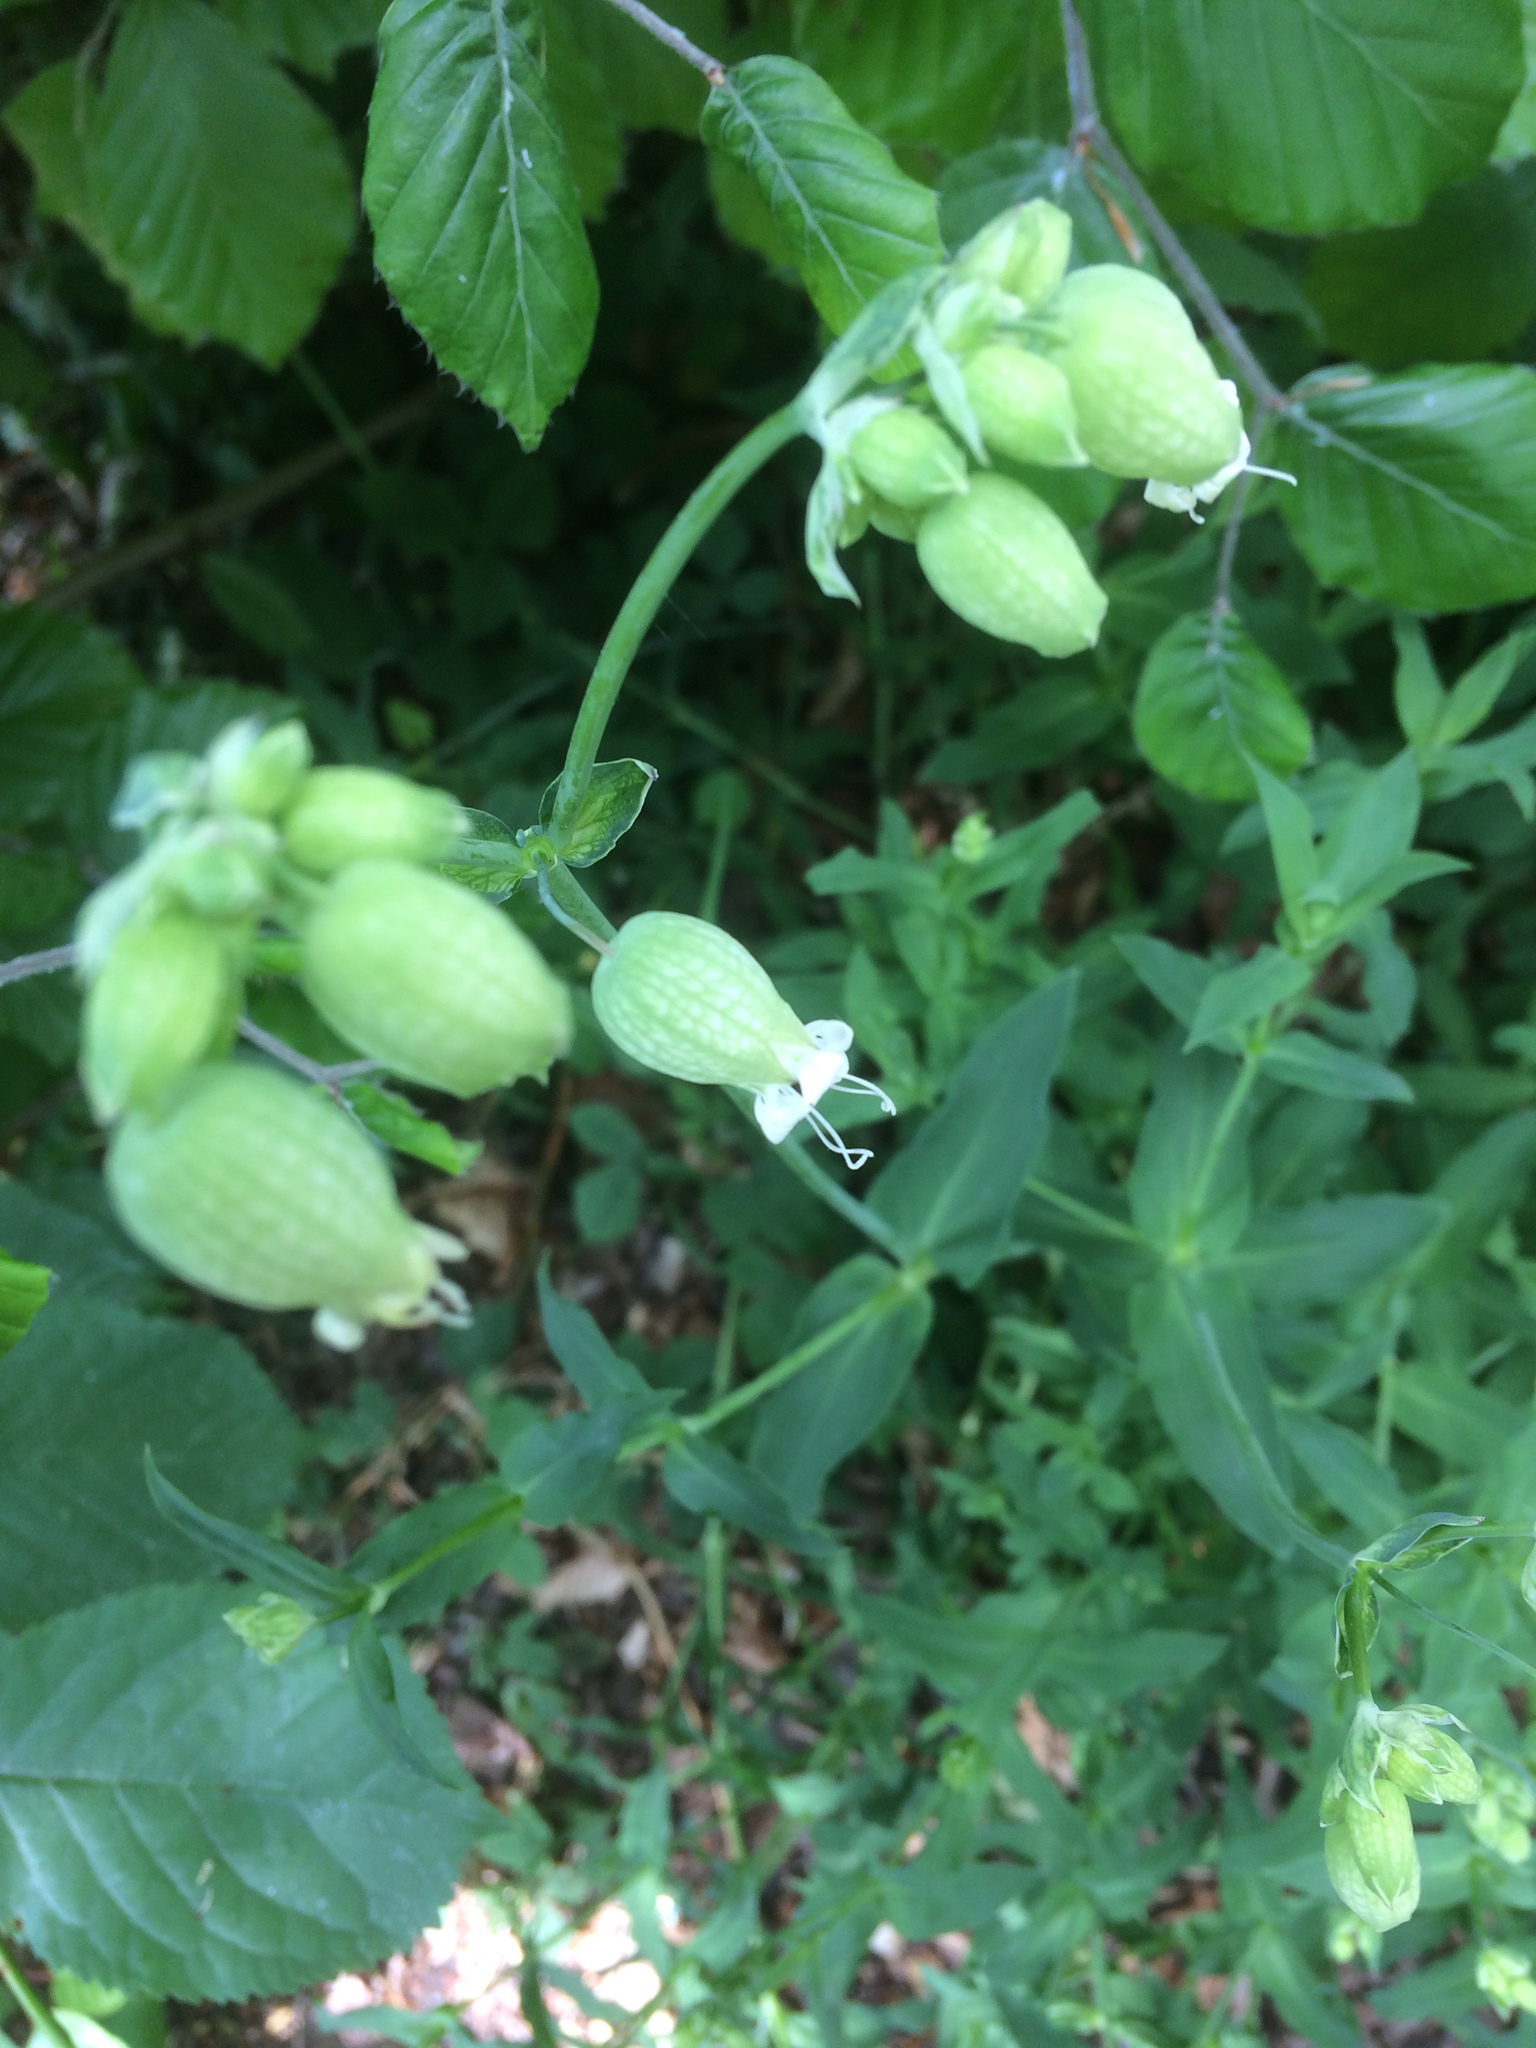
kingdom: Plantae
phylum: Tracheophyta
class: Magnoliopsida
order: Caryophyllales
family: Caryophyllaceae
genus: Silene
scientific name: Silene vulgaris
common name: Bladder campion
